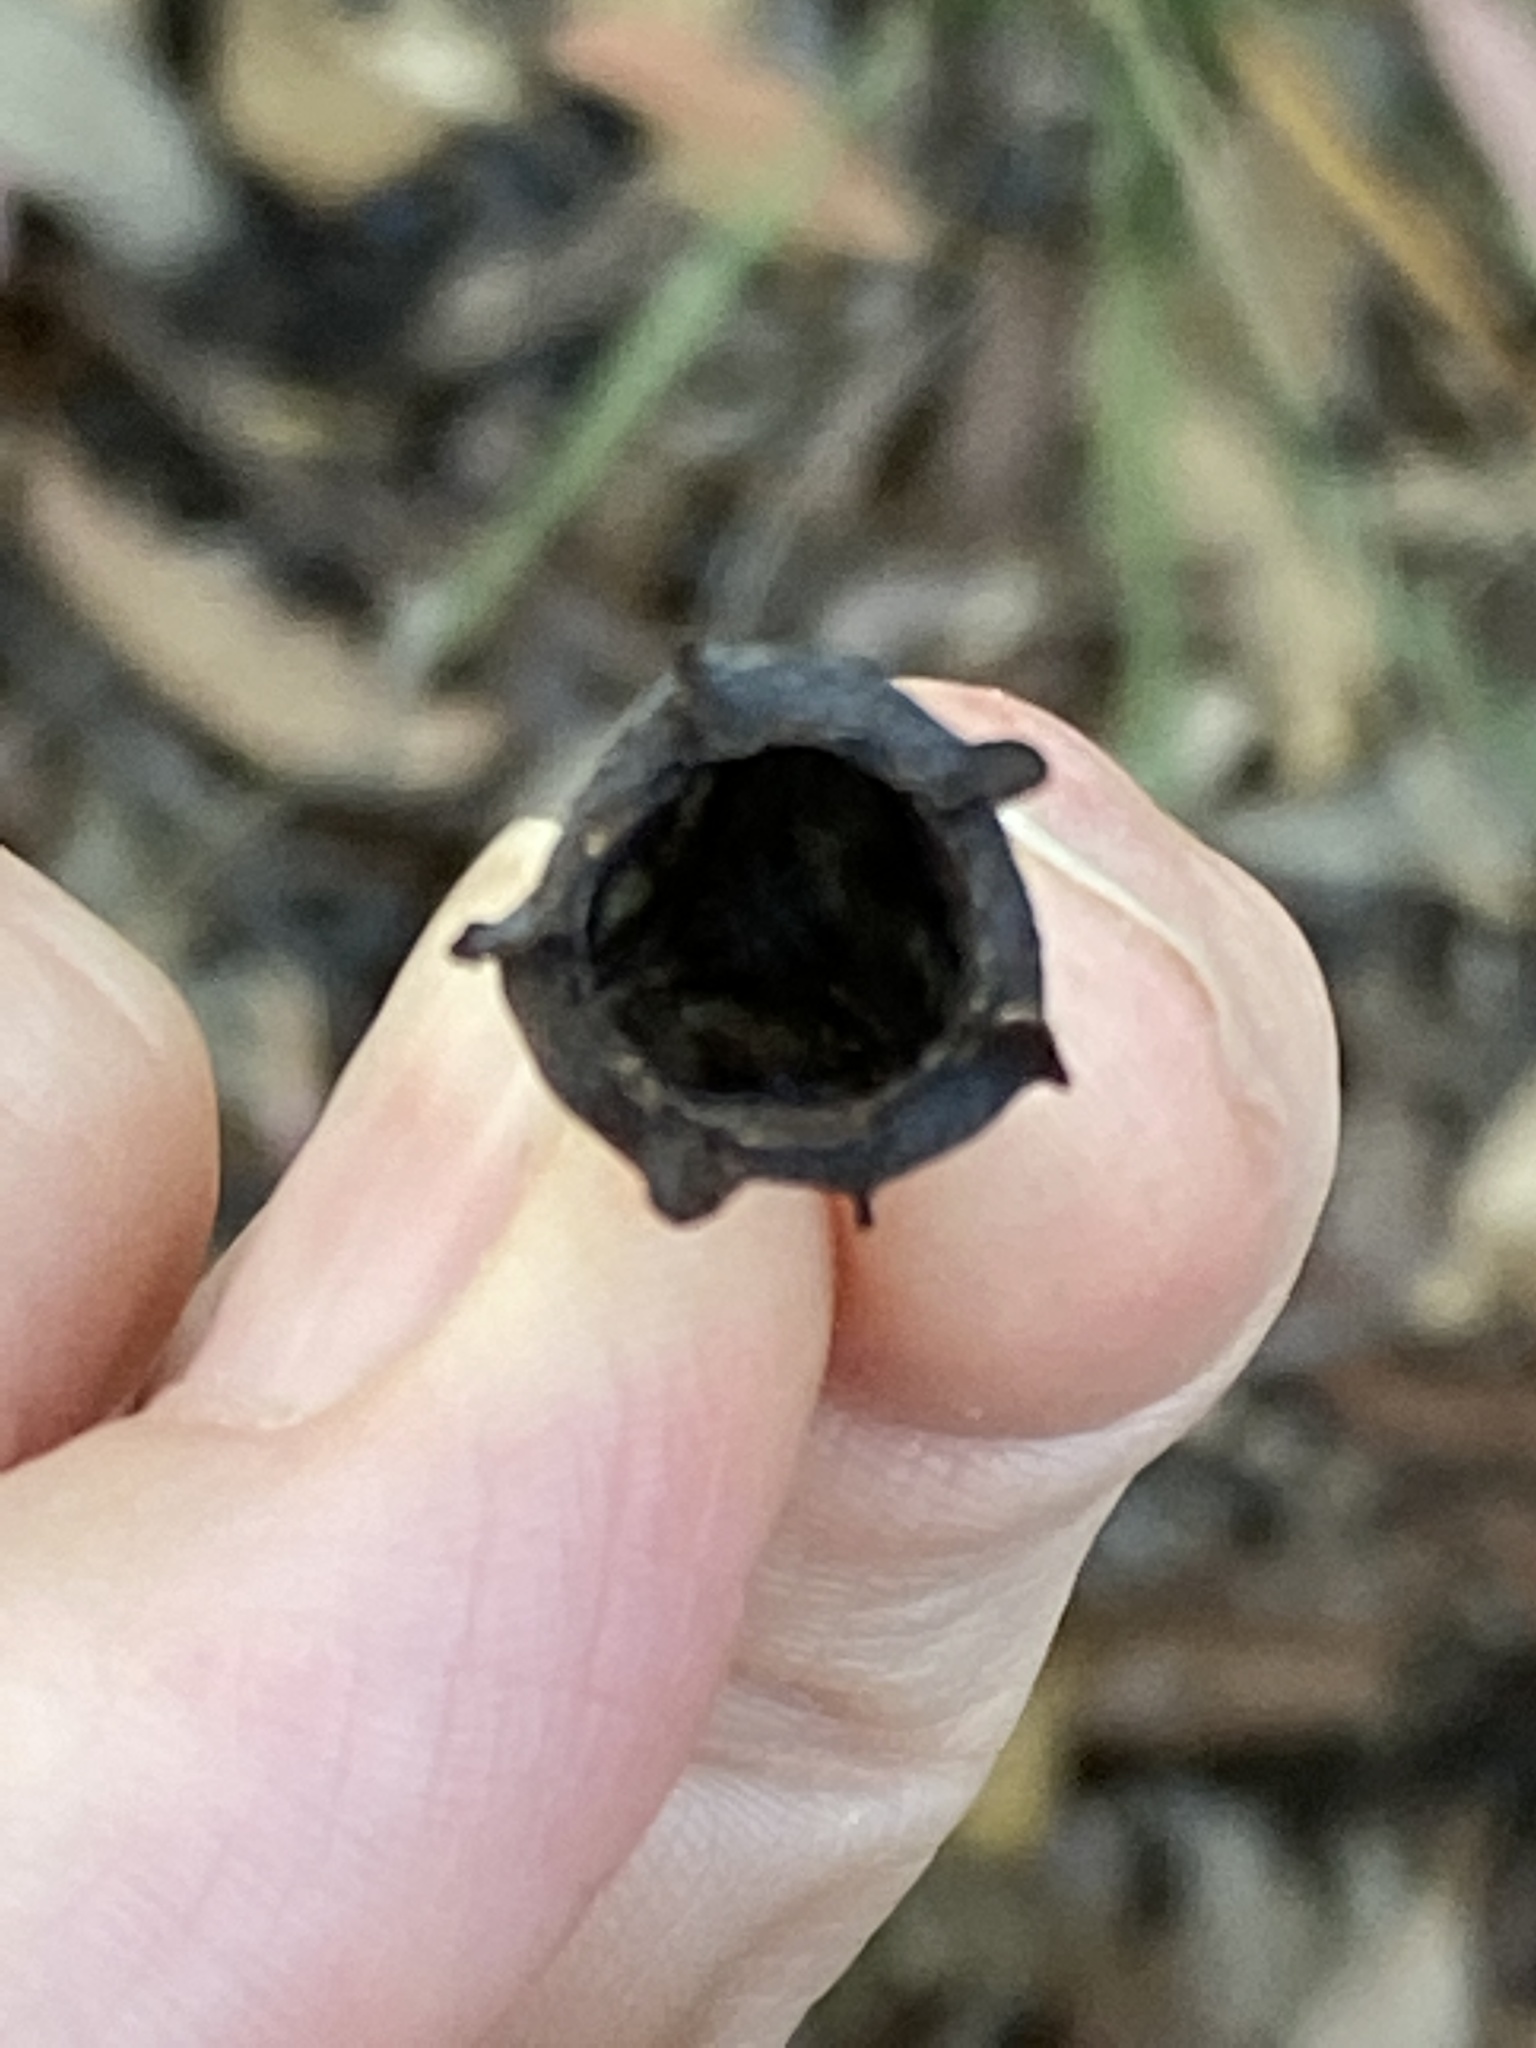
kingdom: Plantae
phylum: Tracheophyta
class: Magnoliopsida
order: Myrtales
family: Myrtaceae
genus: Angophora
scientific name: Angophora woodsiana
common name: Smudgy apple
